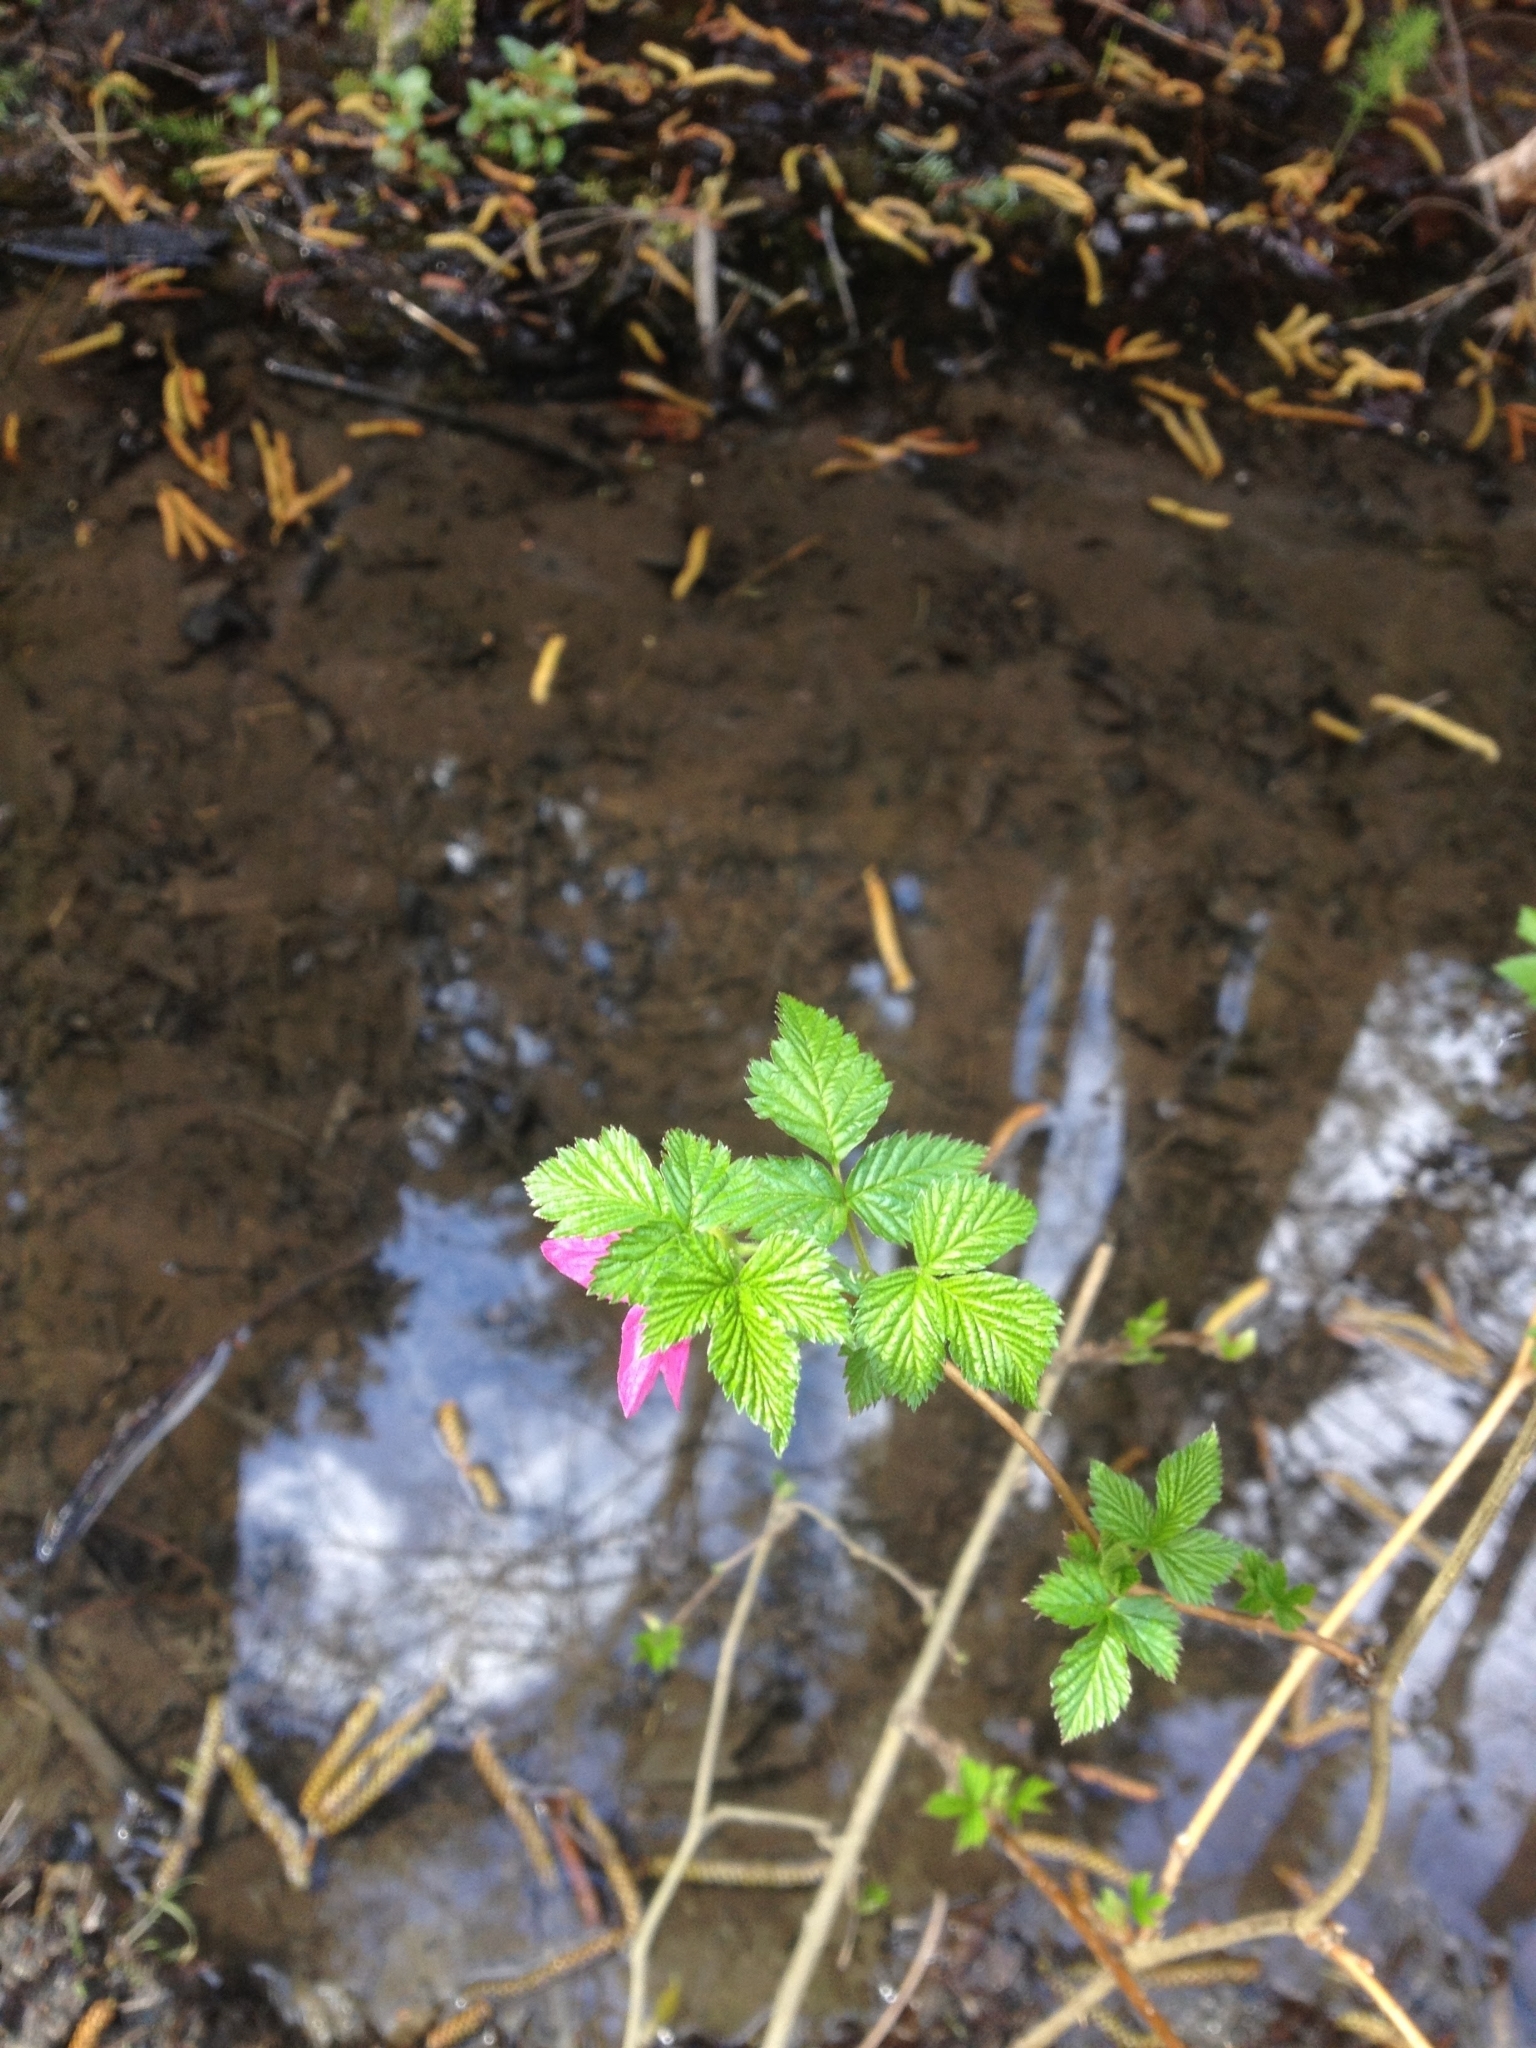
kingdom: Plantae
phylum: Tracheophyta
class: Magnoliopsida
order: Rosales
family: Rosaceae
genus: Rubus
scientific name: Rubus spectabilis
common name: Salmonberry
